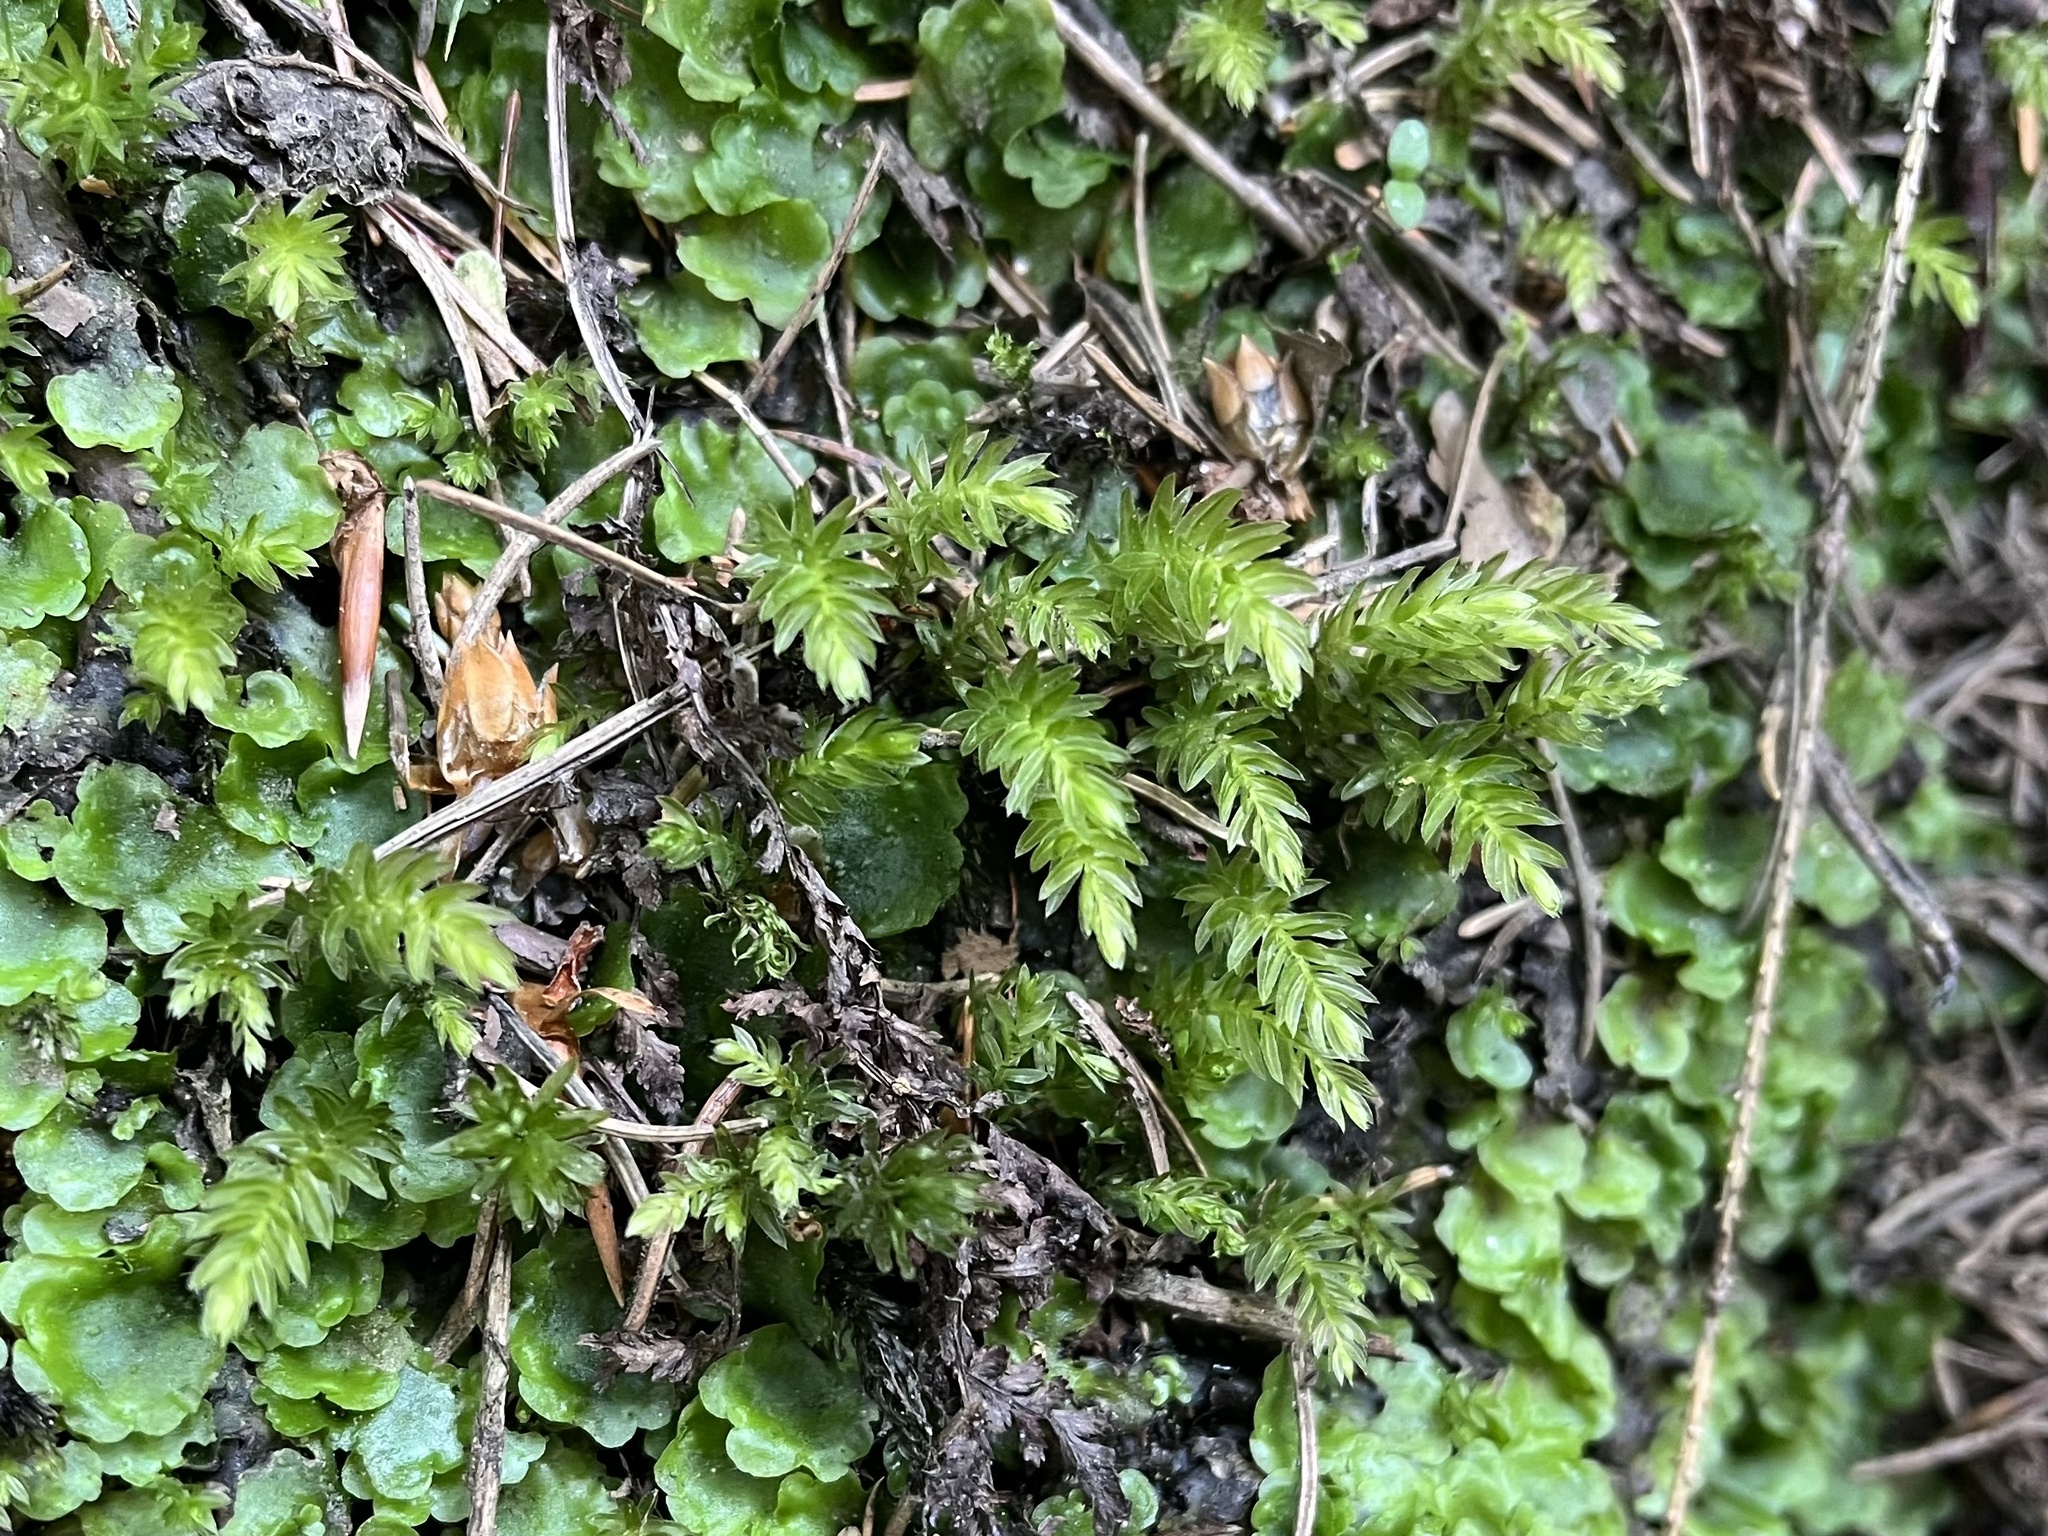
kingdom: Plantae
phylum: Bryophyta
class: Bryopsida
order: Bryales
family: Mniaceae
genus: Mnium
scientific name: Mnium hornum
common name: Swan's-neck leafy moss
